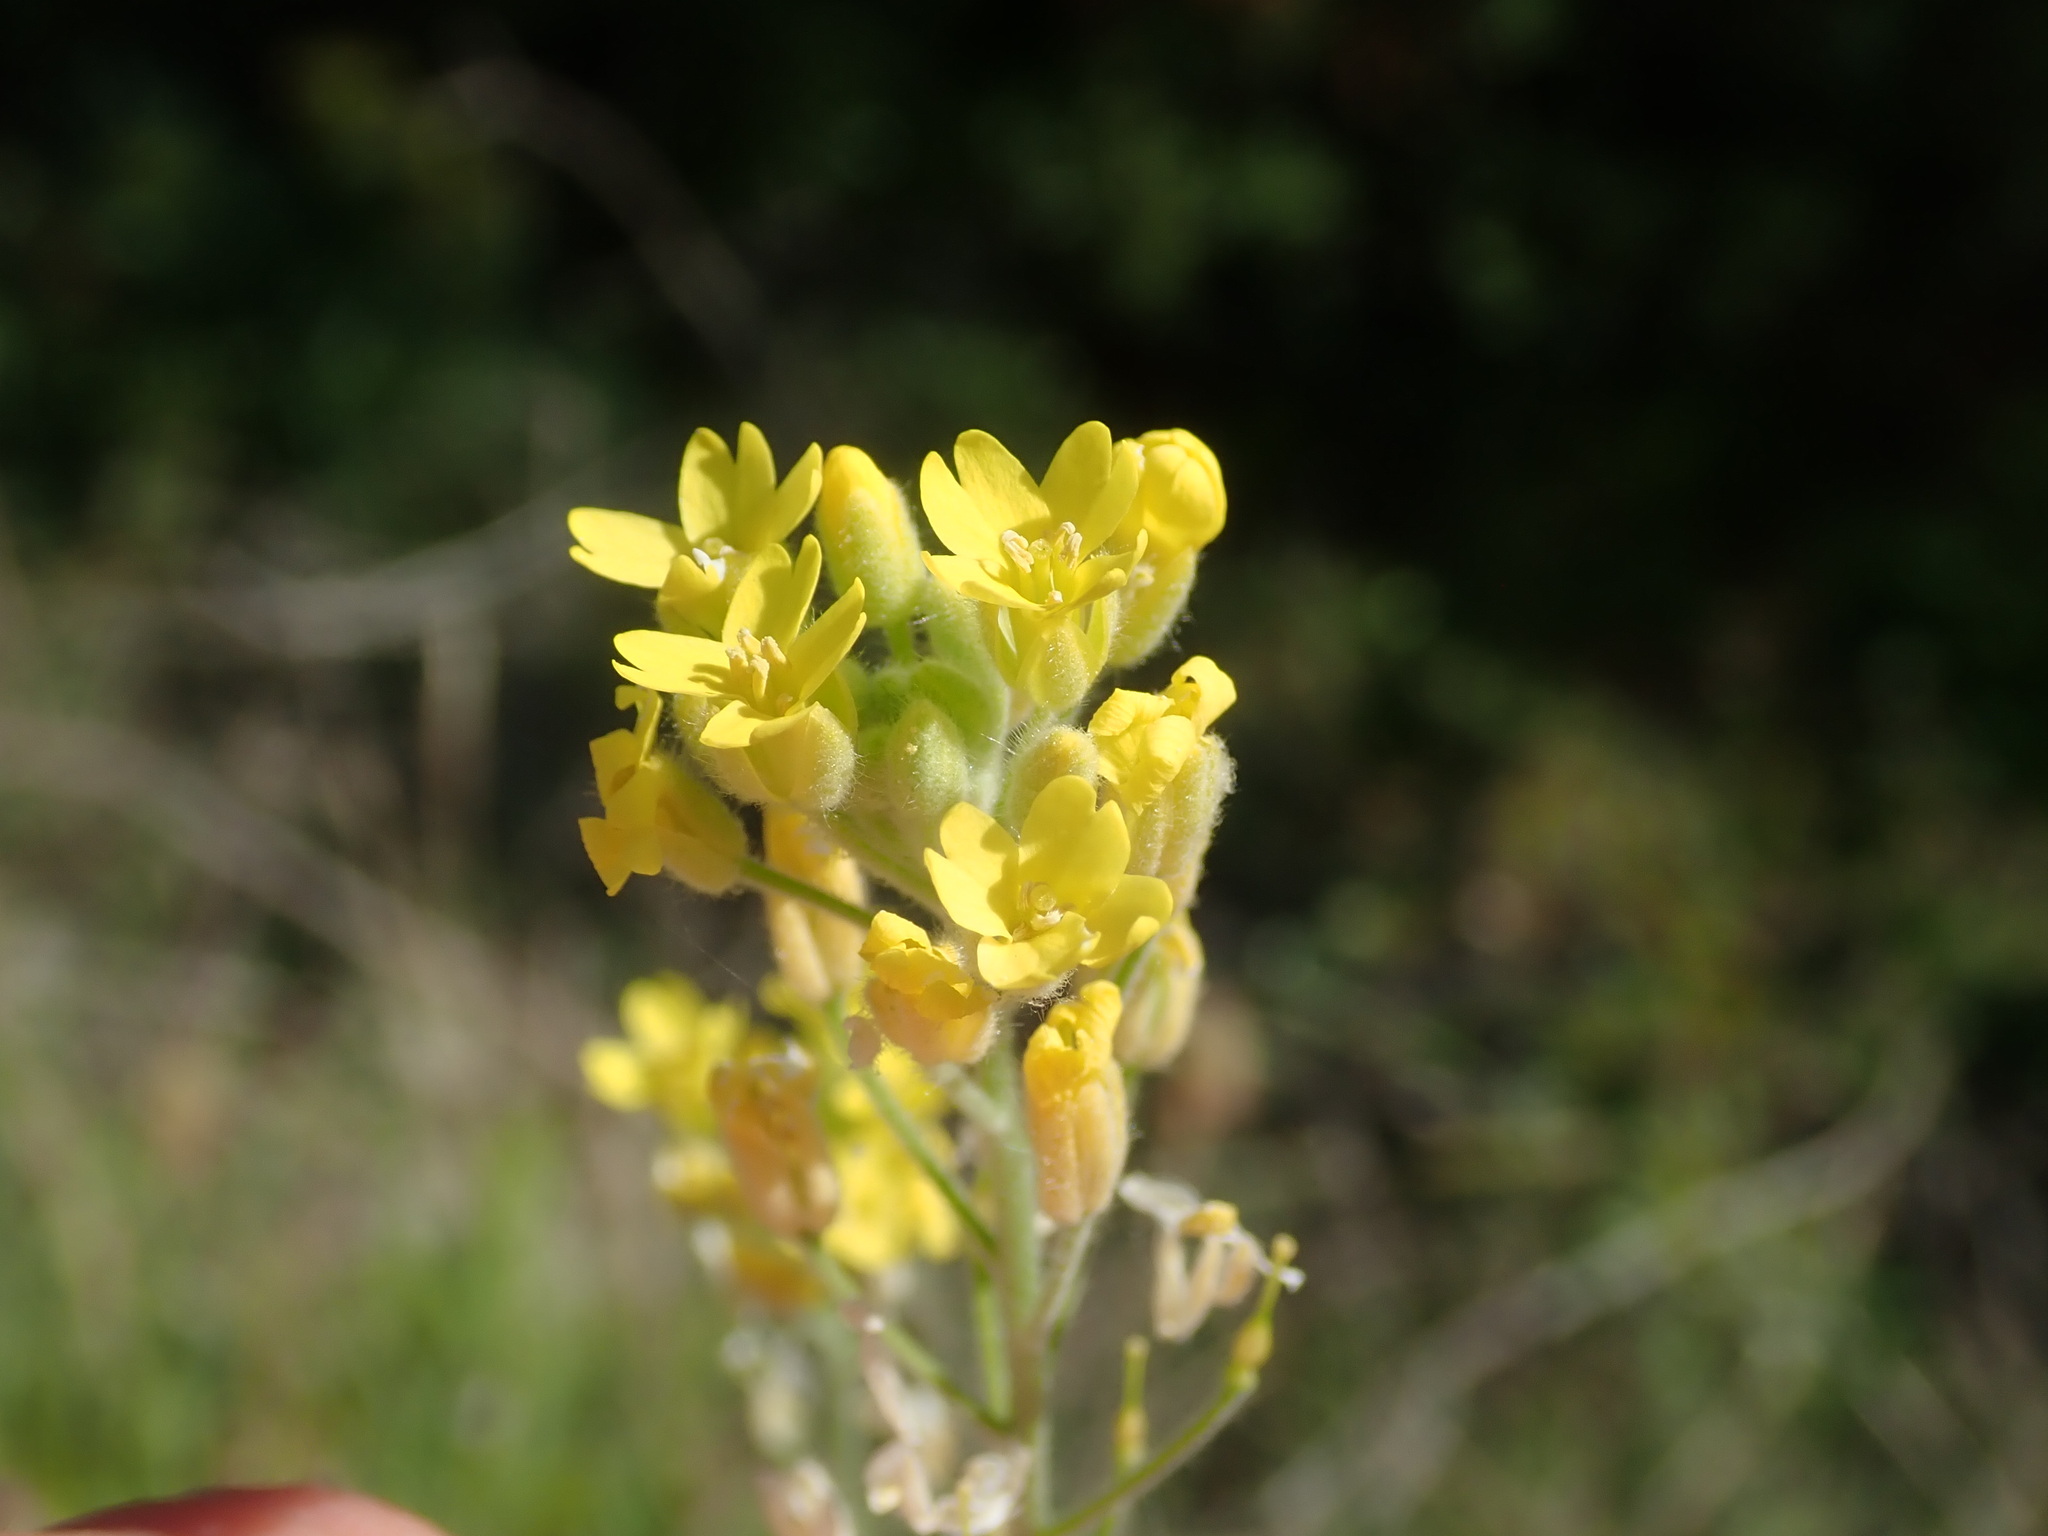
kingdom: Plantae
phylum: Tracheophyta
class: Magnoliopsida
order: Brassicales
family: Brassicaceae
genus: Aurinia
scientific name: Aurinia sinuata
